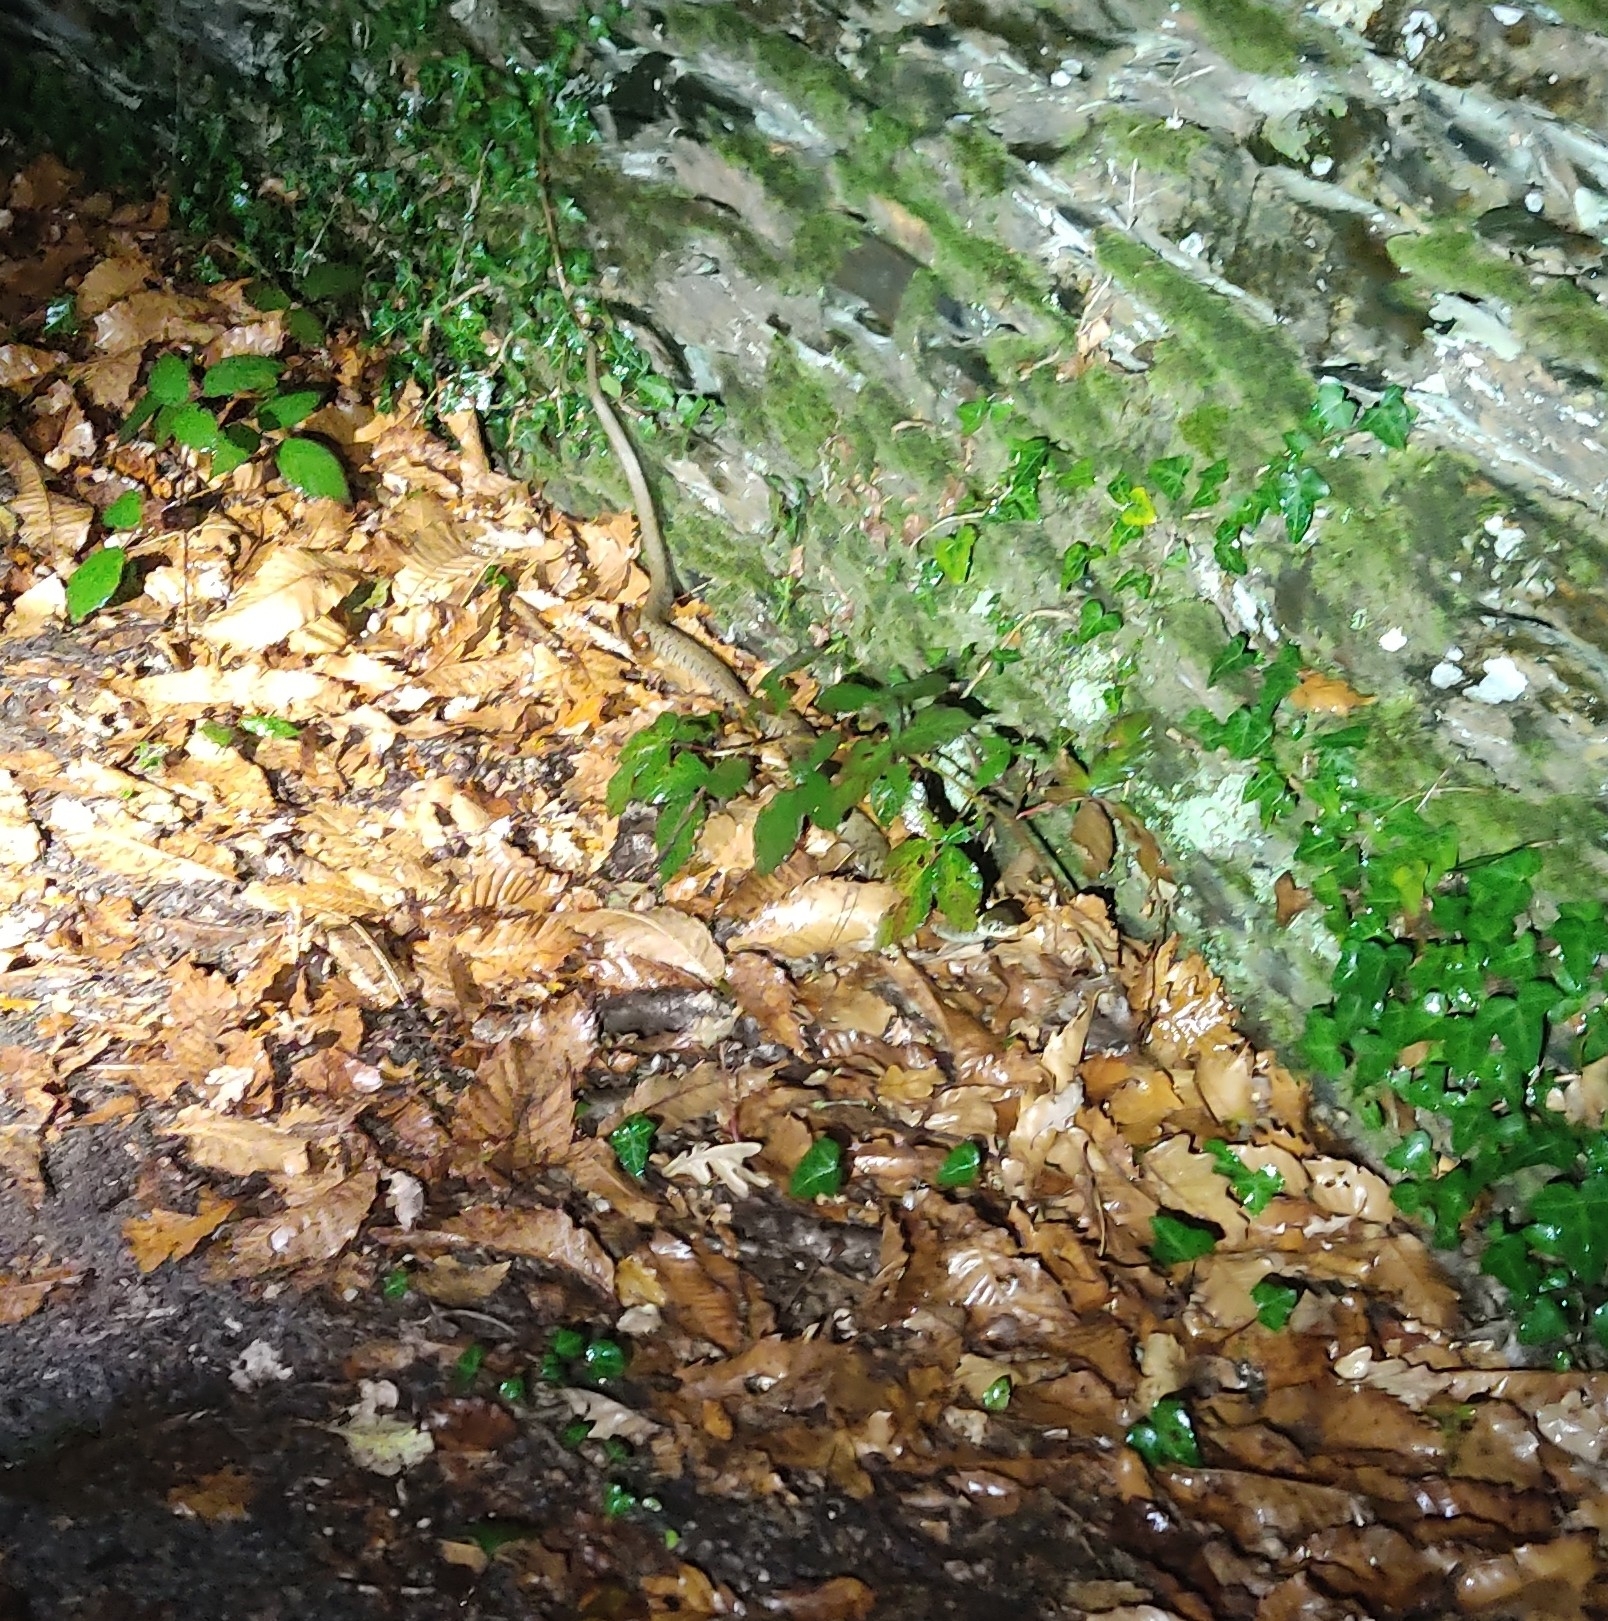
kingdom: Animalia
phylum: Chordata
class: Squamata
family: Colubridae
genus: Natrix
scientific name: Natrix helvetica
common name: Banded grass snake
